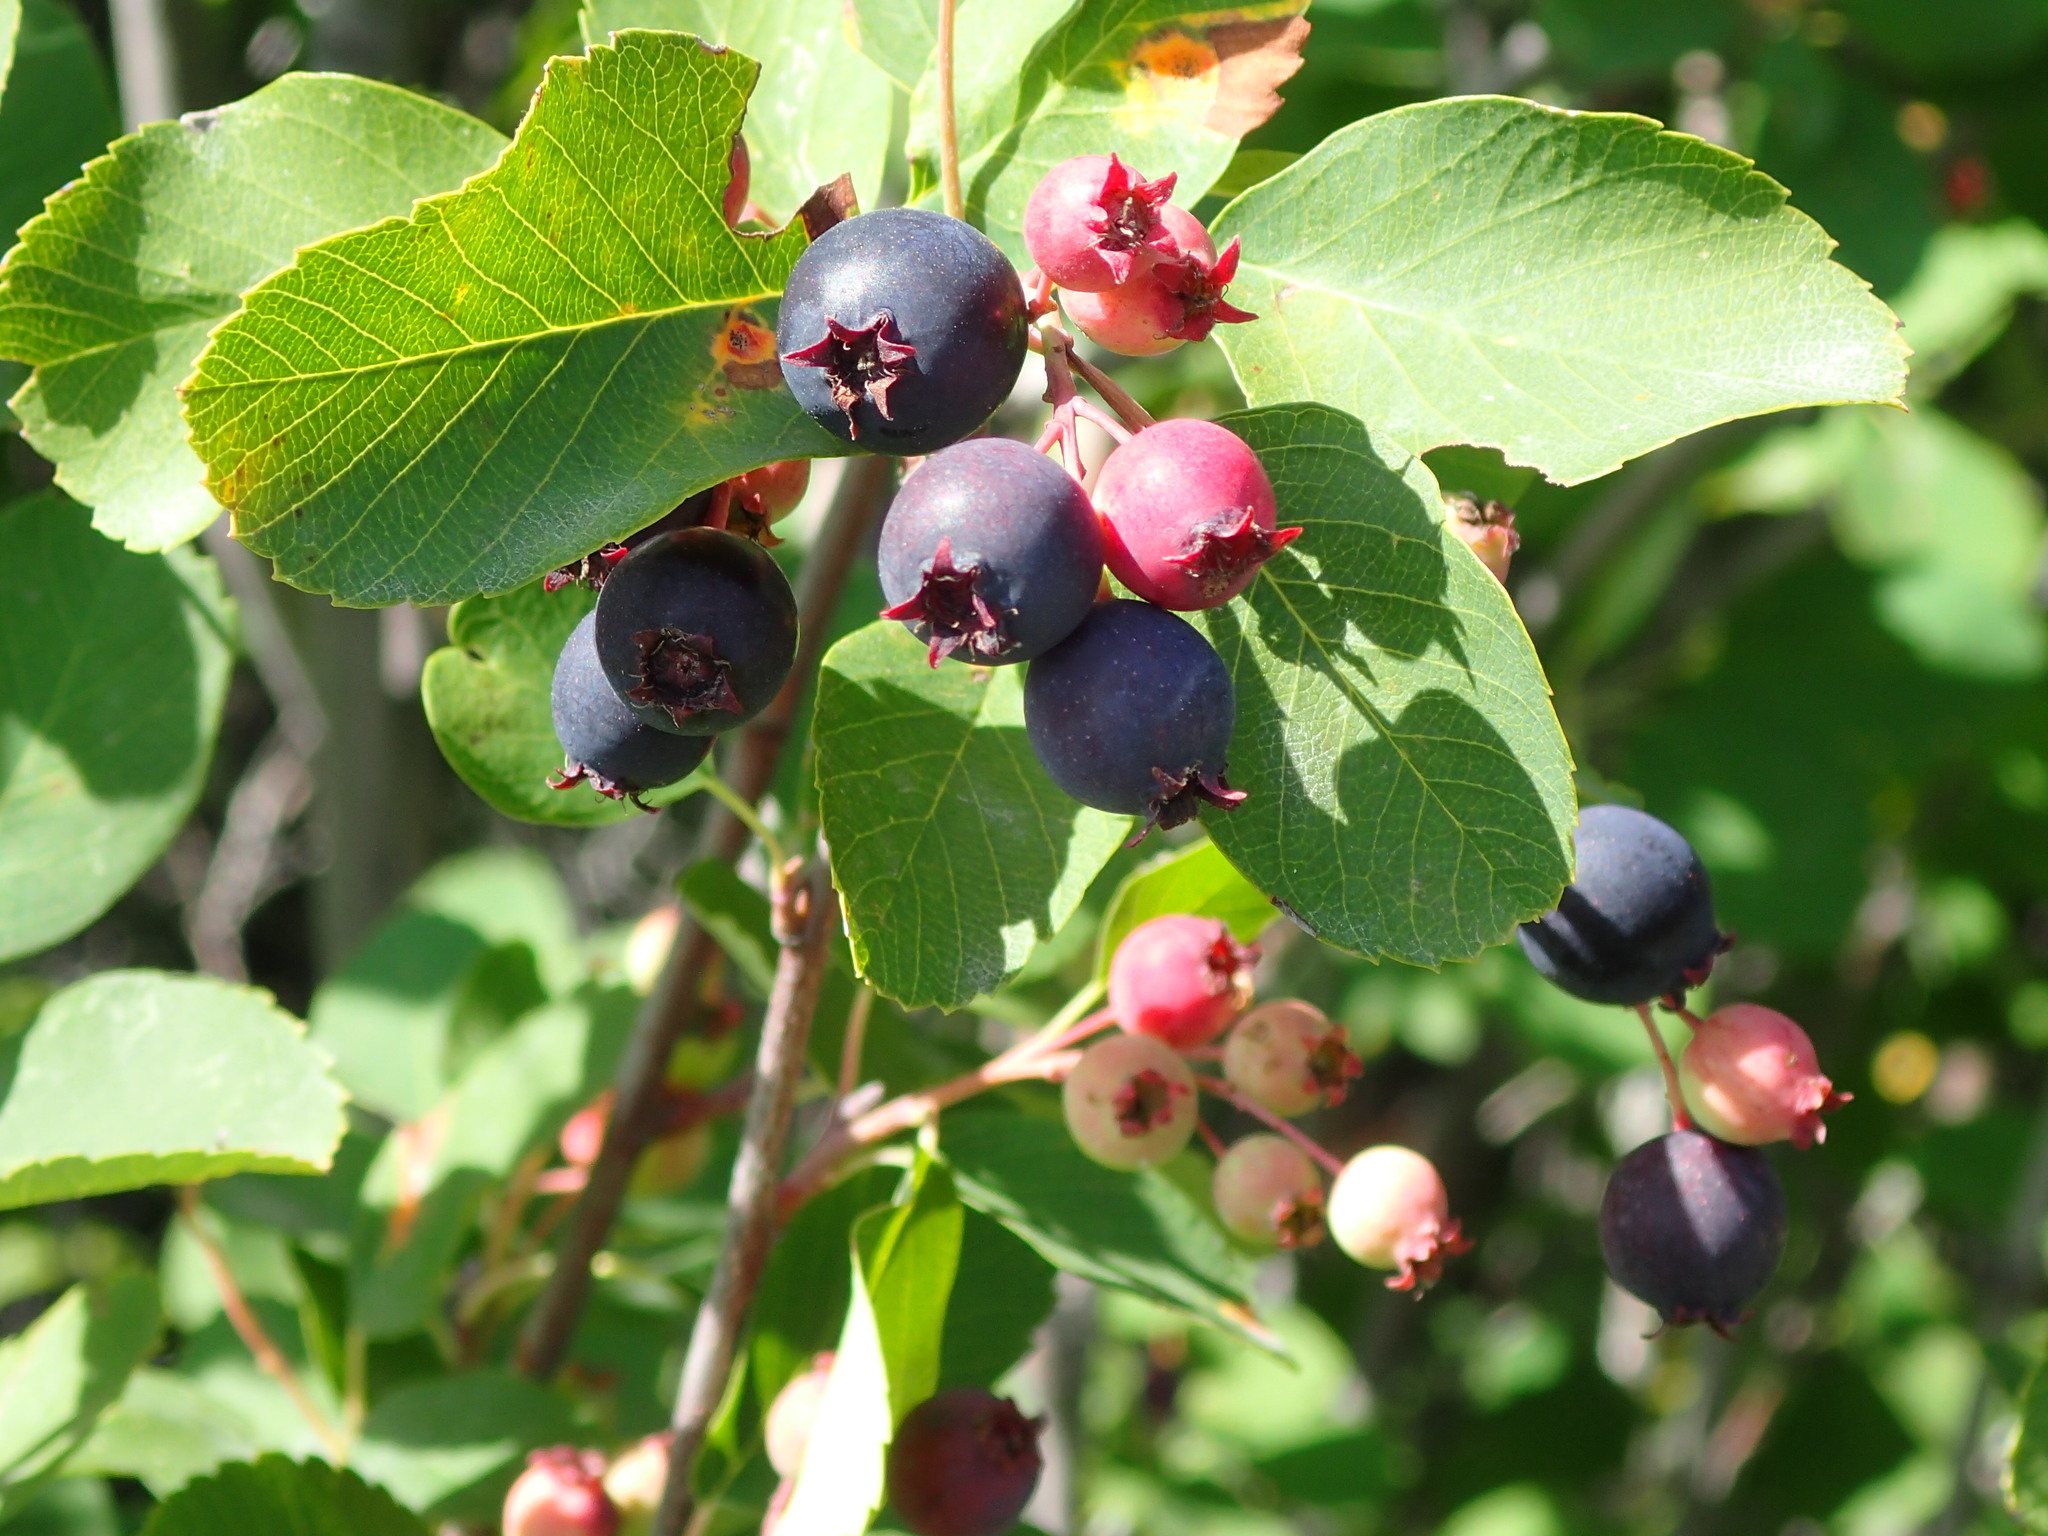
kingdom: Plantae
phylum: Tracheophyta
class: Magnoliopsida
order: Rosales
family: Rosaceae
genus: Amelanchier
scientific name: Amelanchier alnifolia
